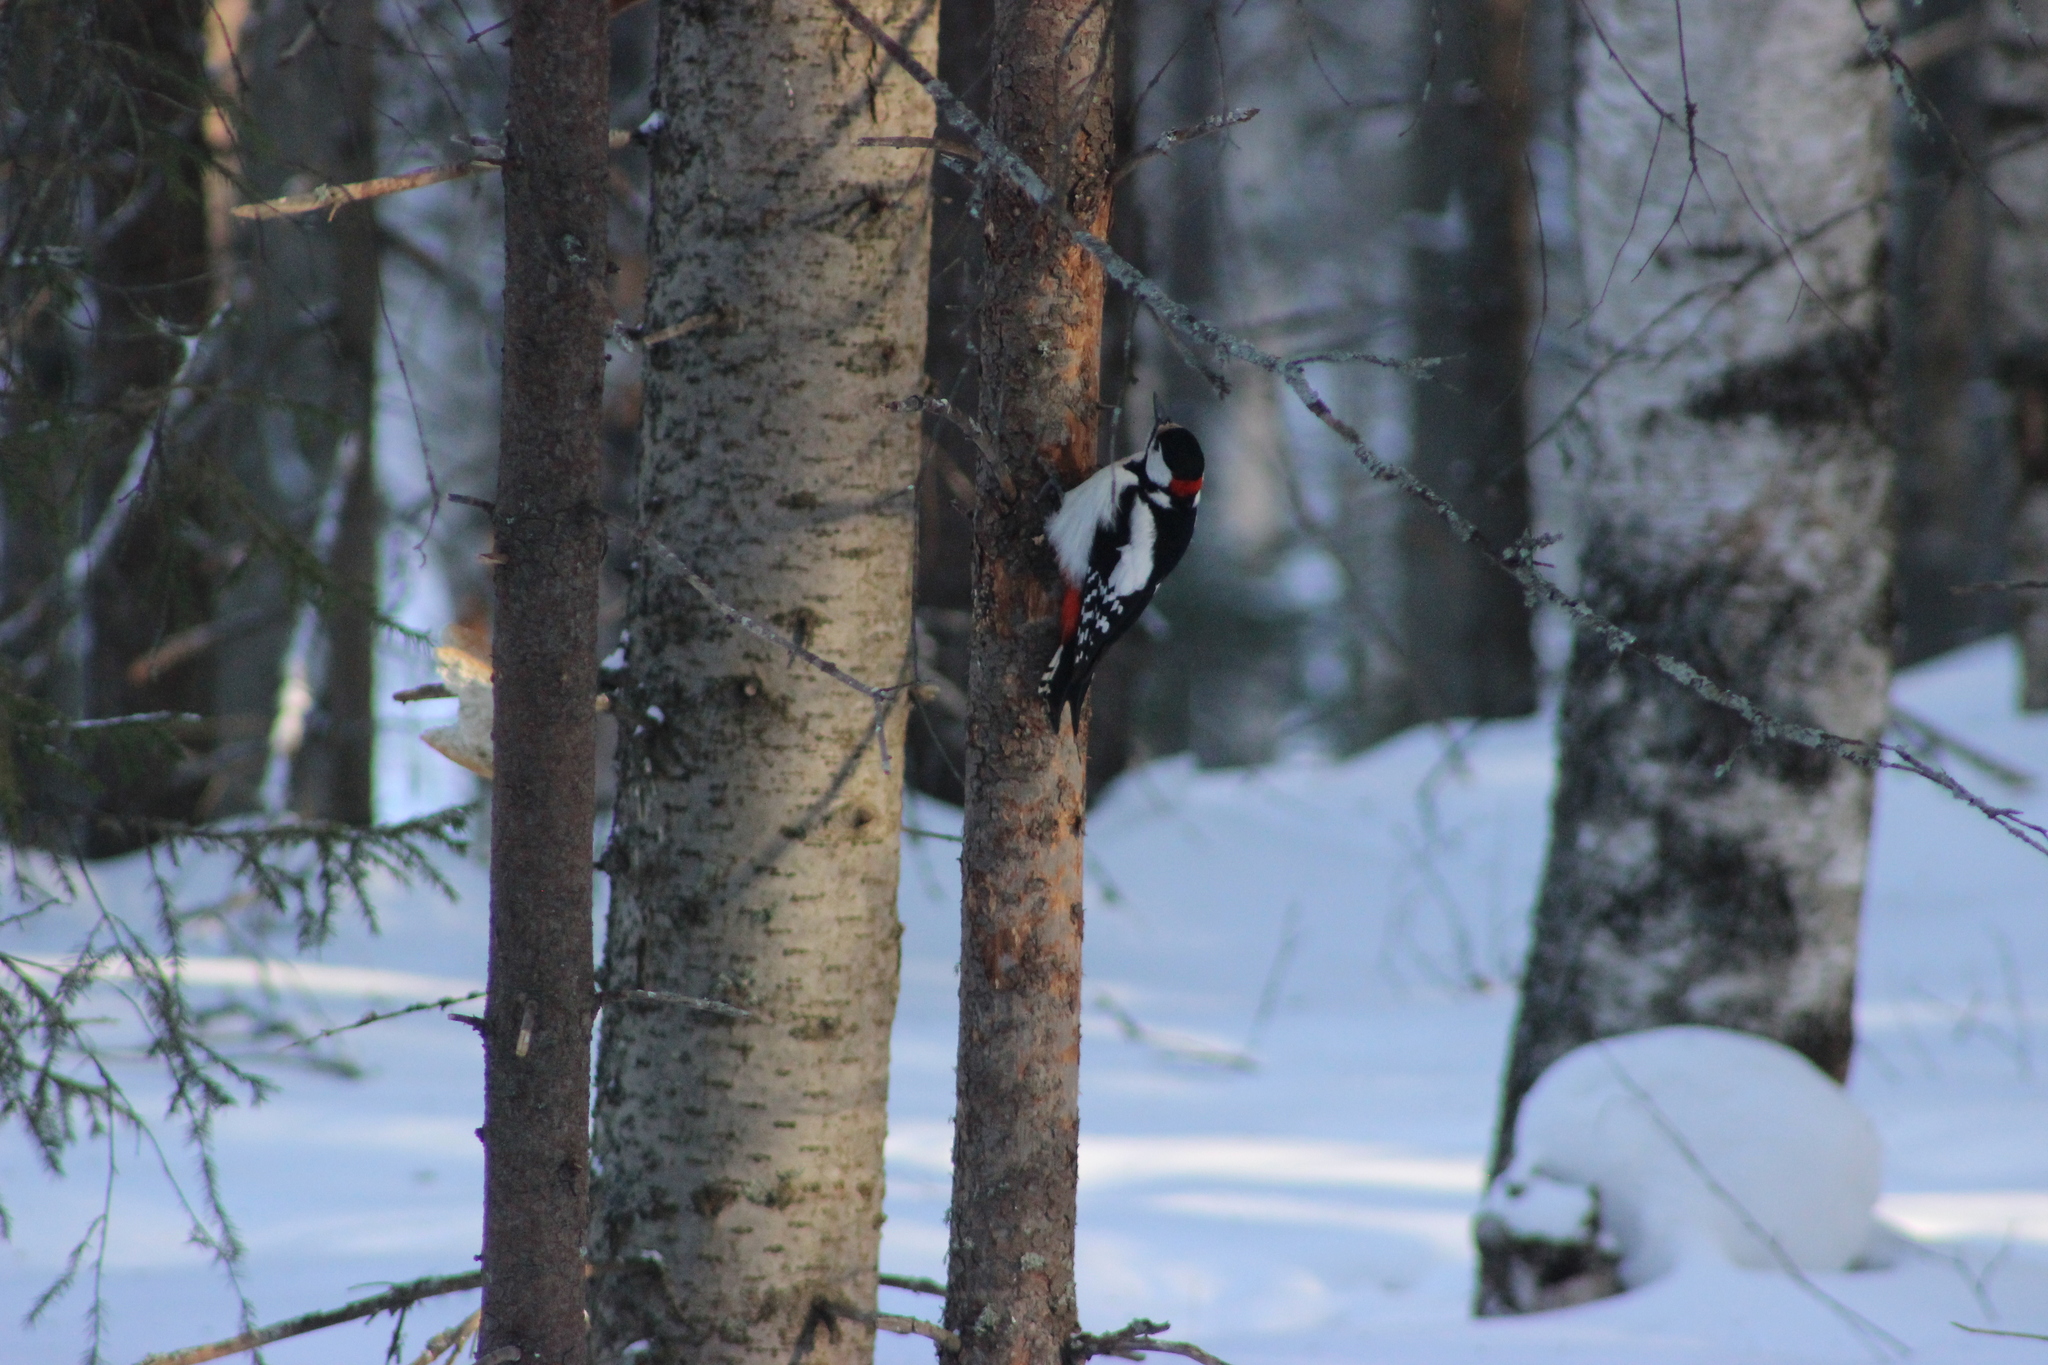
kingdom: Animalia
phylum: Chordata
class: Aves
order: Piciformes
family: Picidae
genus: Dendrocopos
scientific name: Dendrocopos major
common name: Great spotted woodpecker
